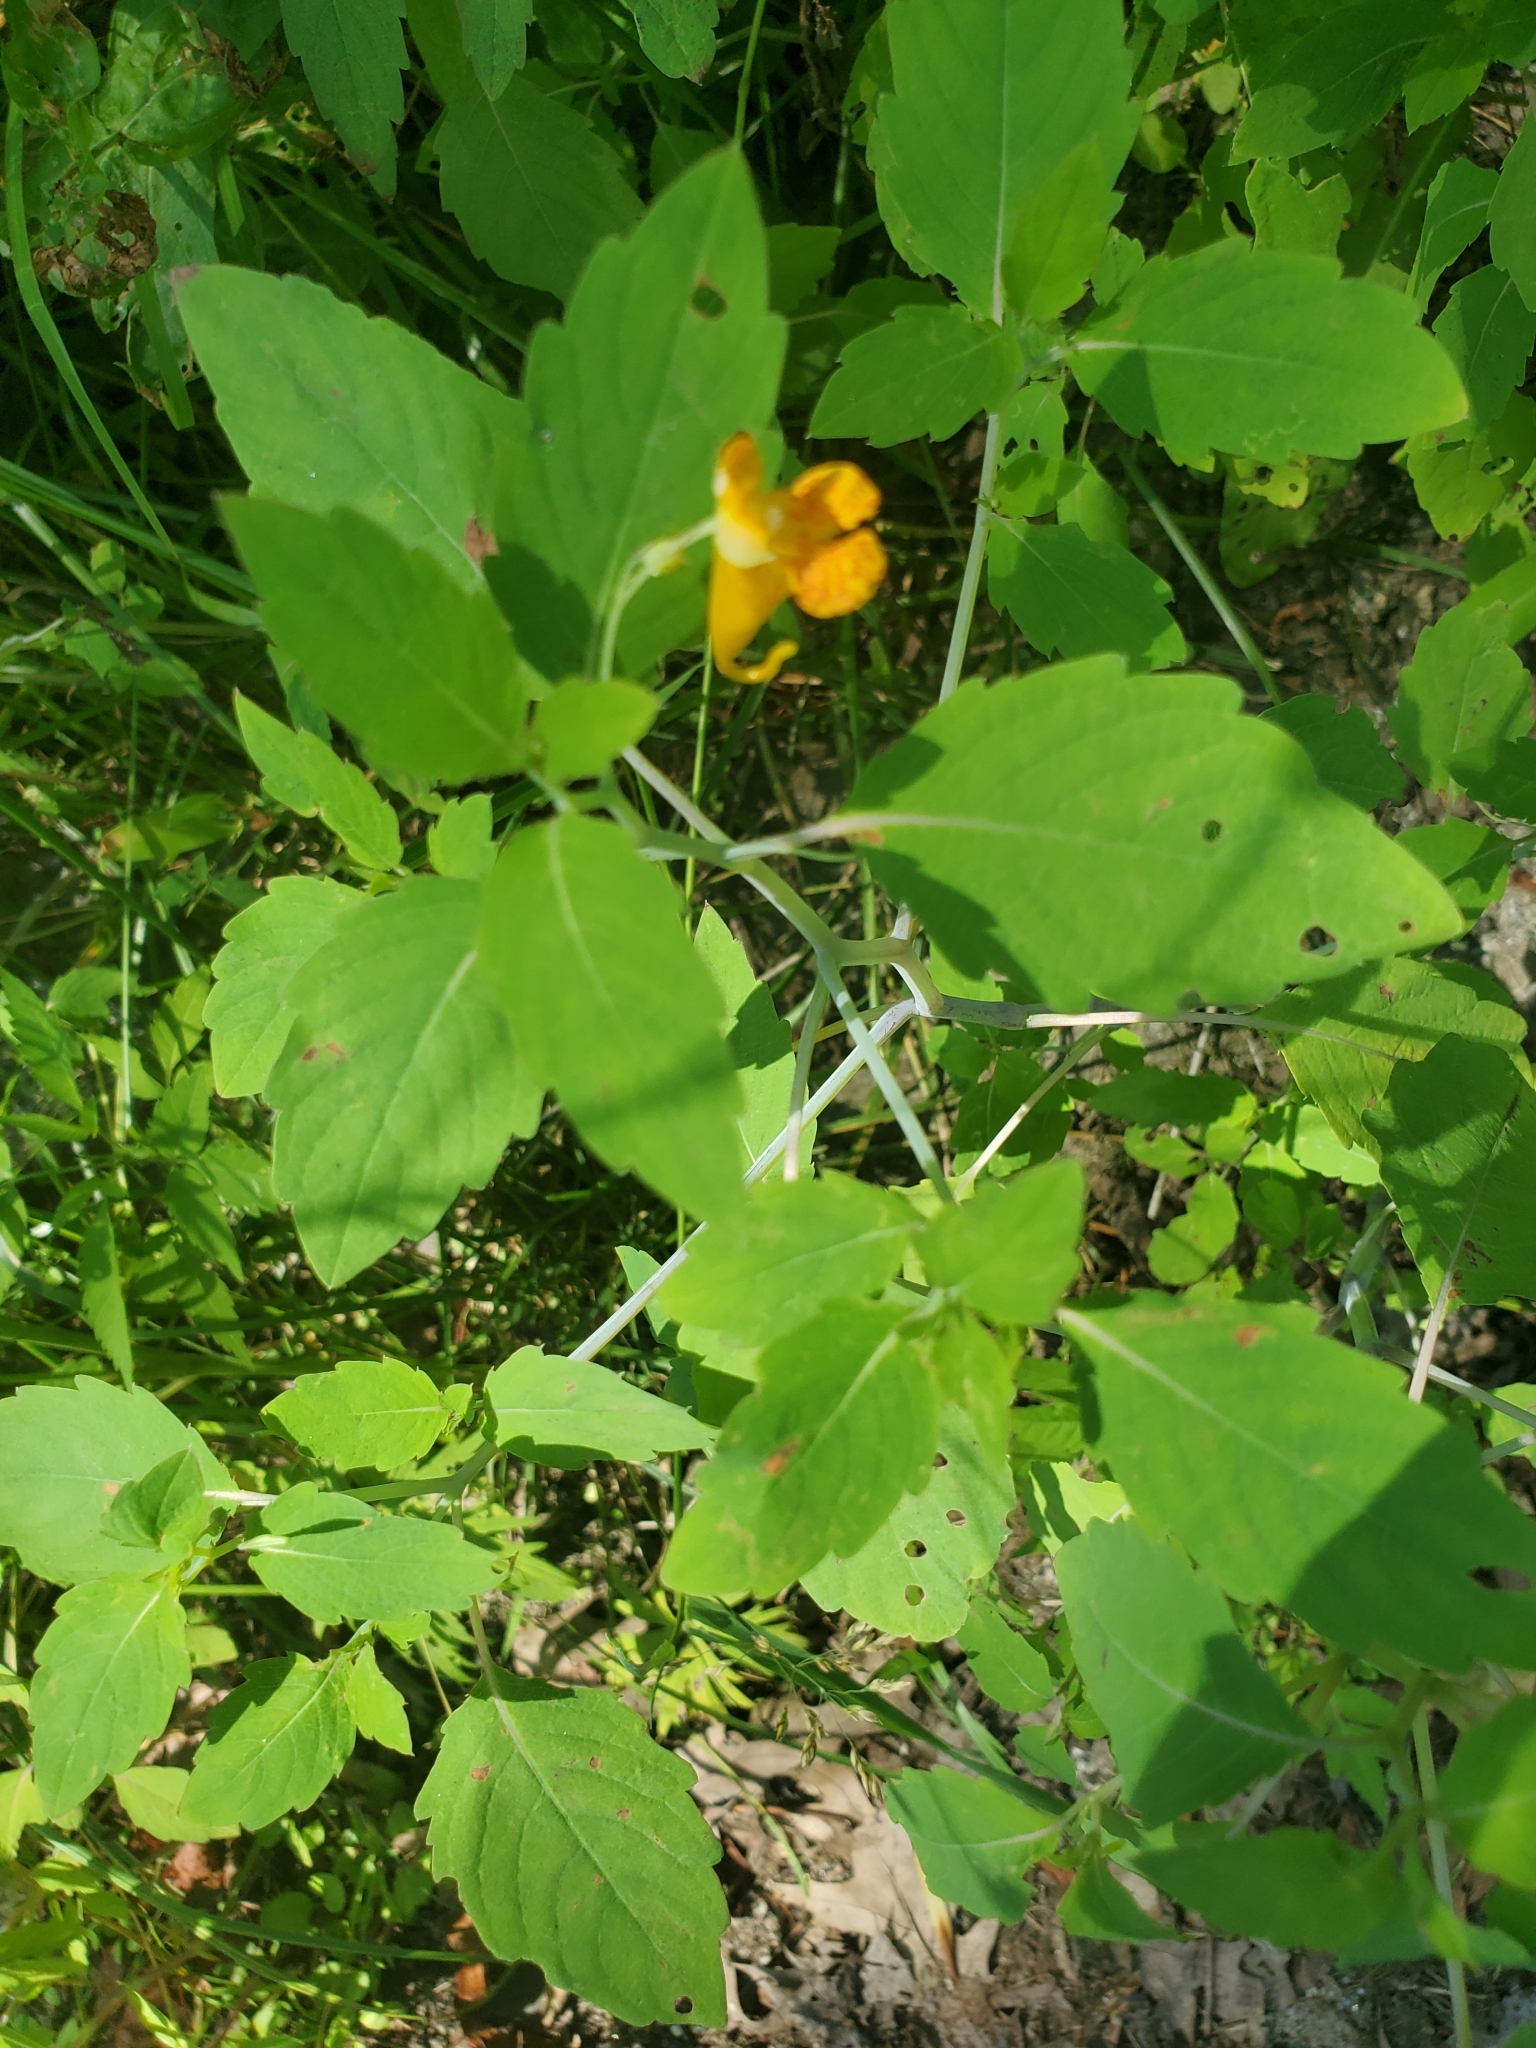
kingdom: Plantae
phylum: Tracheophyta
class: Magnoliopsida
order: Ericales
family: Balsaminaceae
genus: Impatiens
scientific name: Impatiens capensis
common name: Orange balsam
